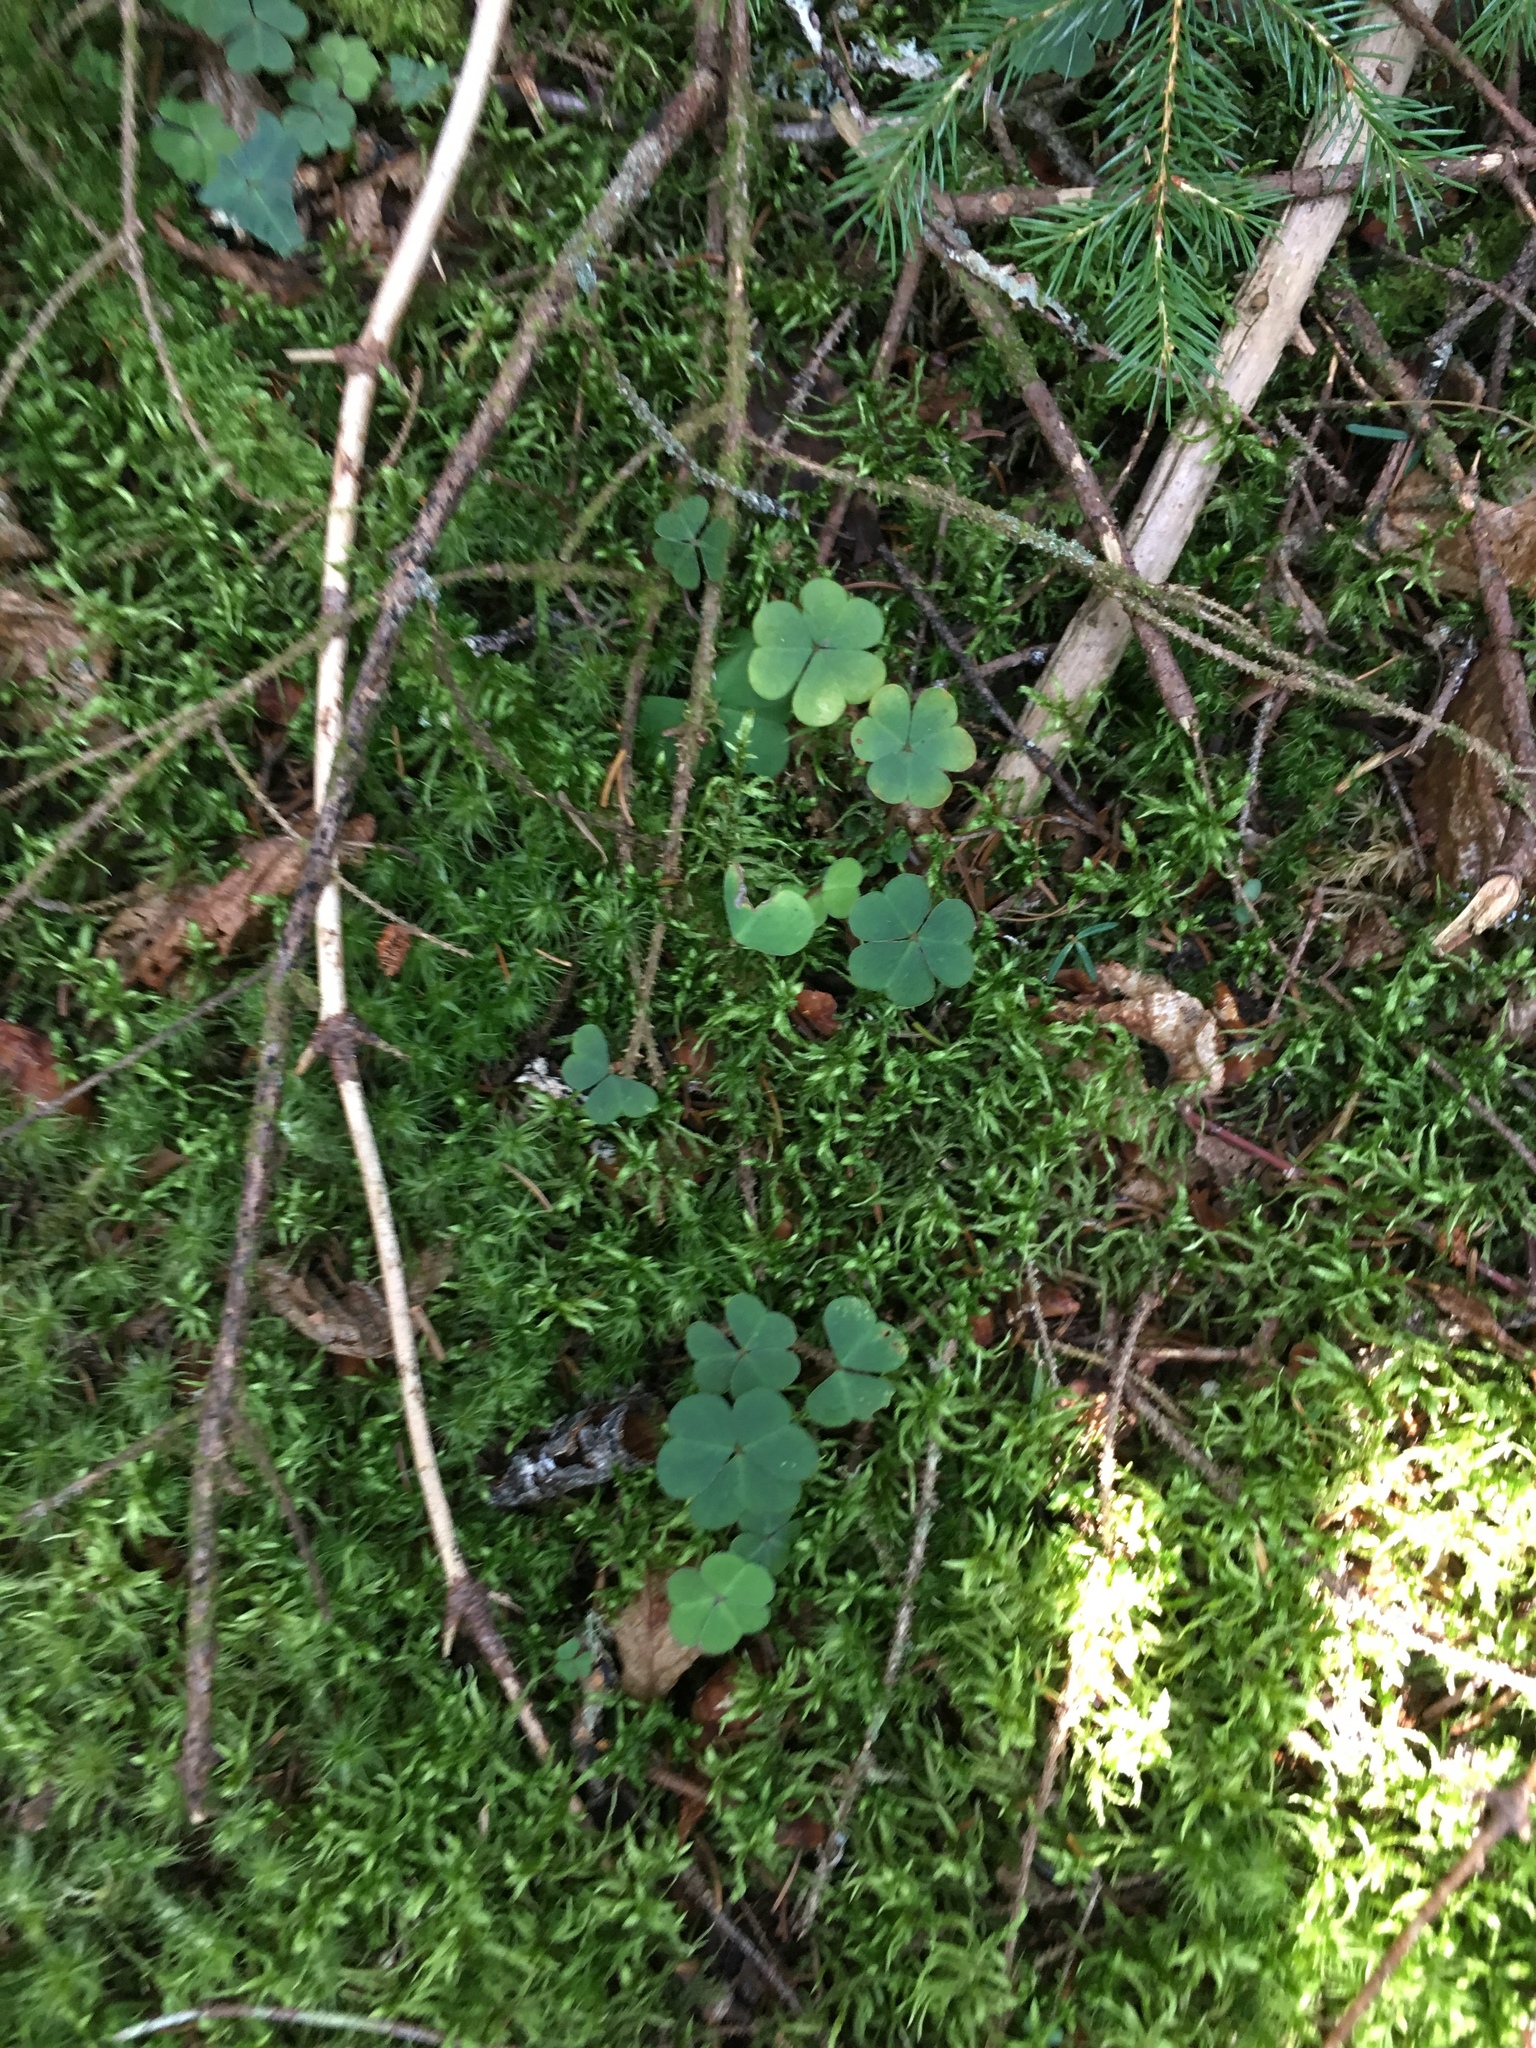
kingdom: Plantae
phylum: Tracheophyta
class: Magnoliopsida
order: Oxalidales
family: Oxalidaceae
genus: Oxalis
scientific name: Oxalis montana
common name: American wood-sorrel
